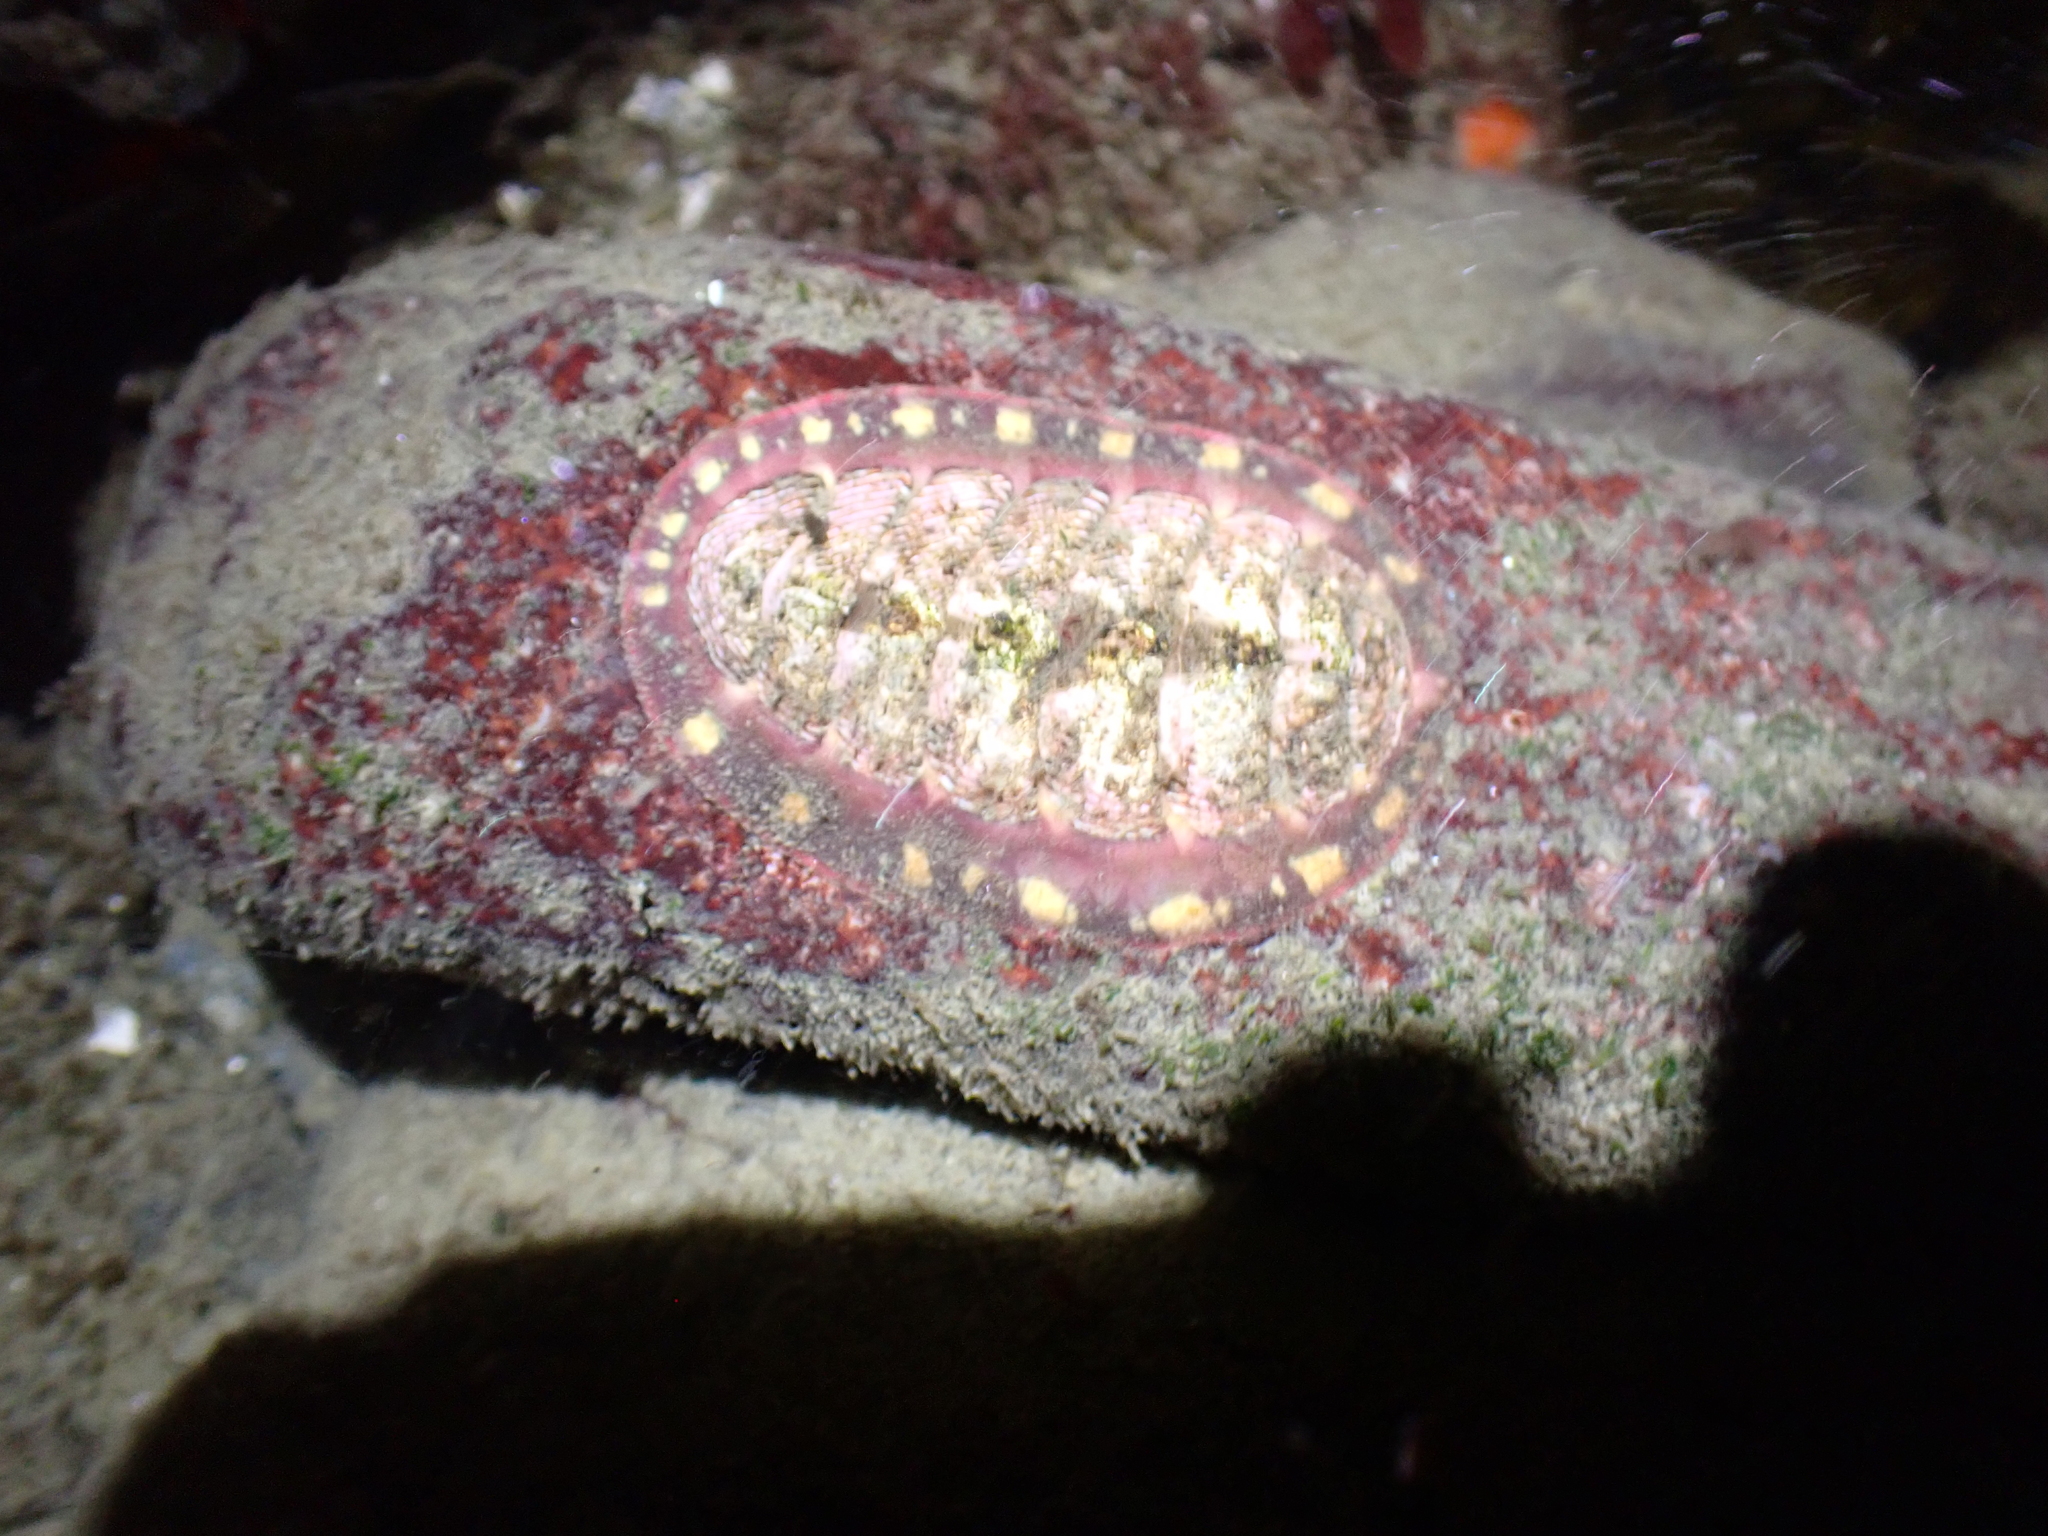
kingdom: Animalia
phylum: Mollusca
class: Polyplacophora
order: Chitonida
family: Tonicellidae
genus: Tonicella
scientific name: Tonicella lineata
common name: Lined chiton
